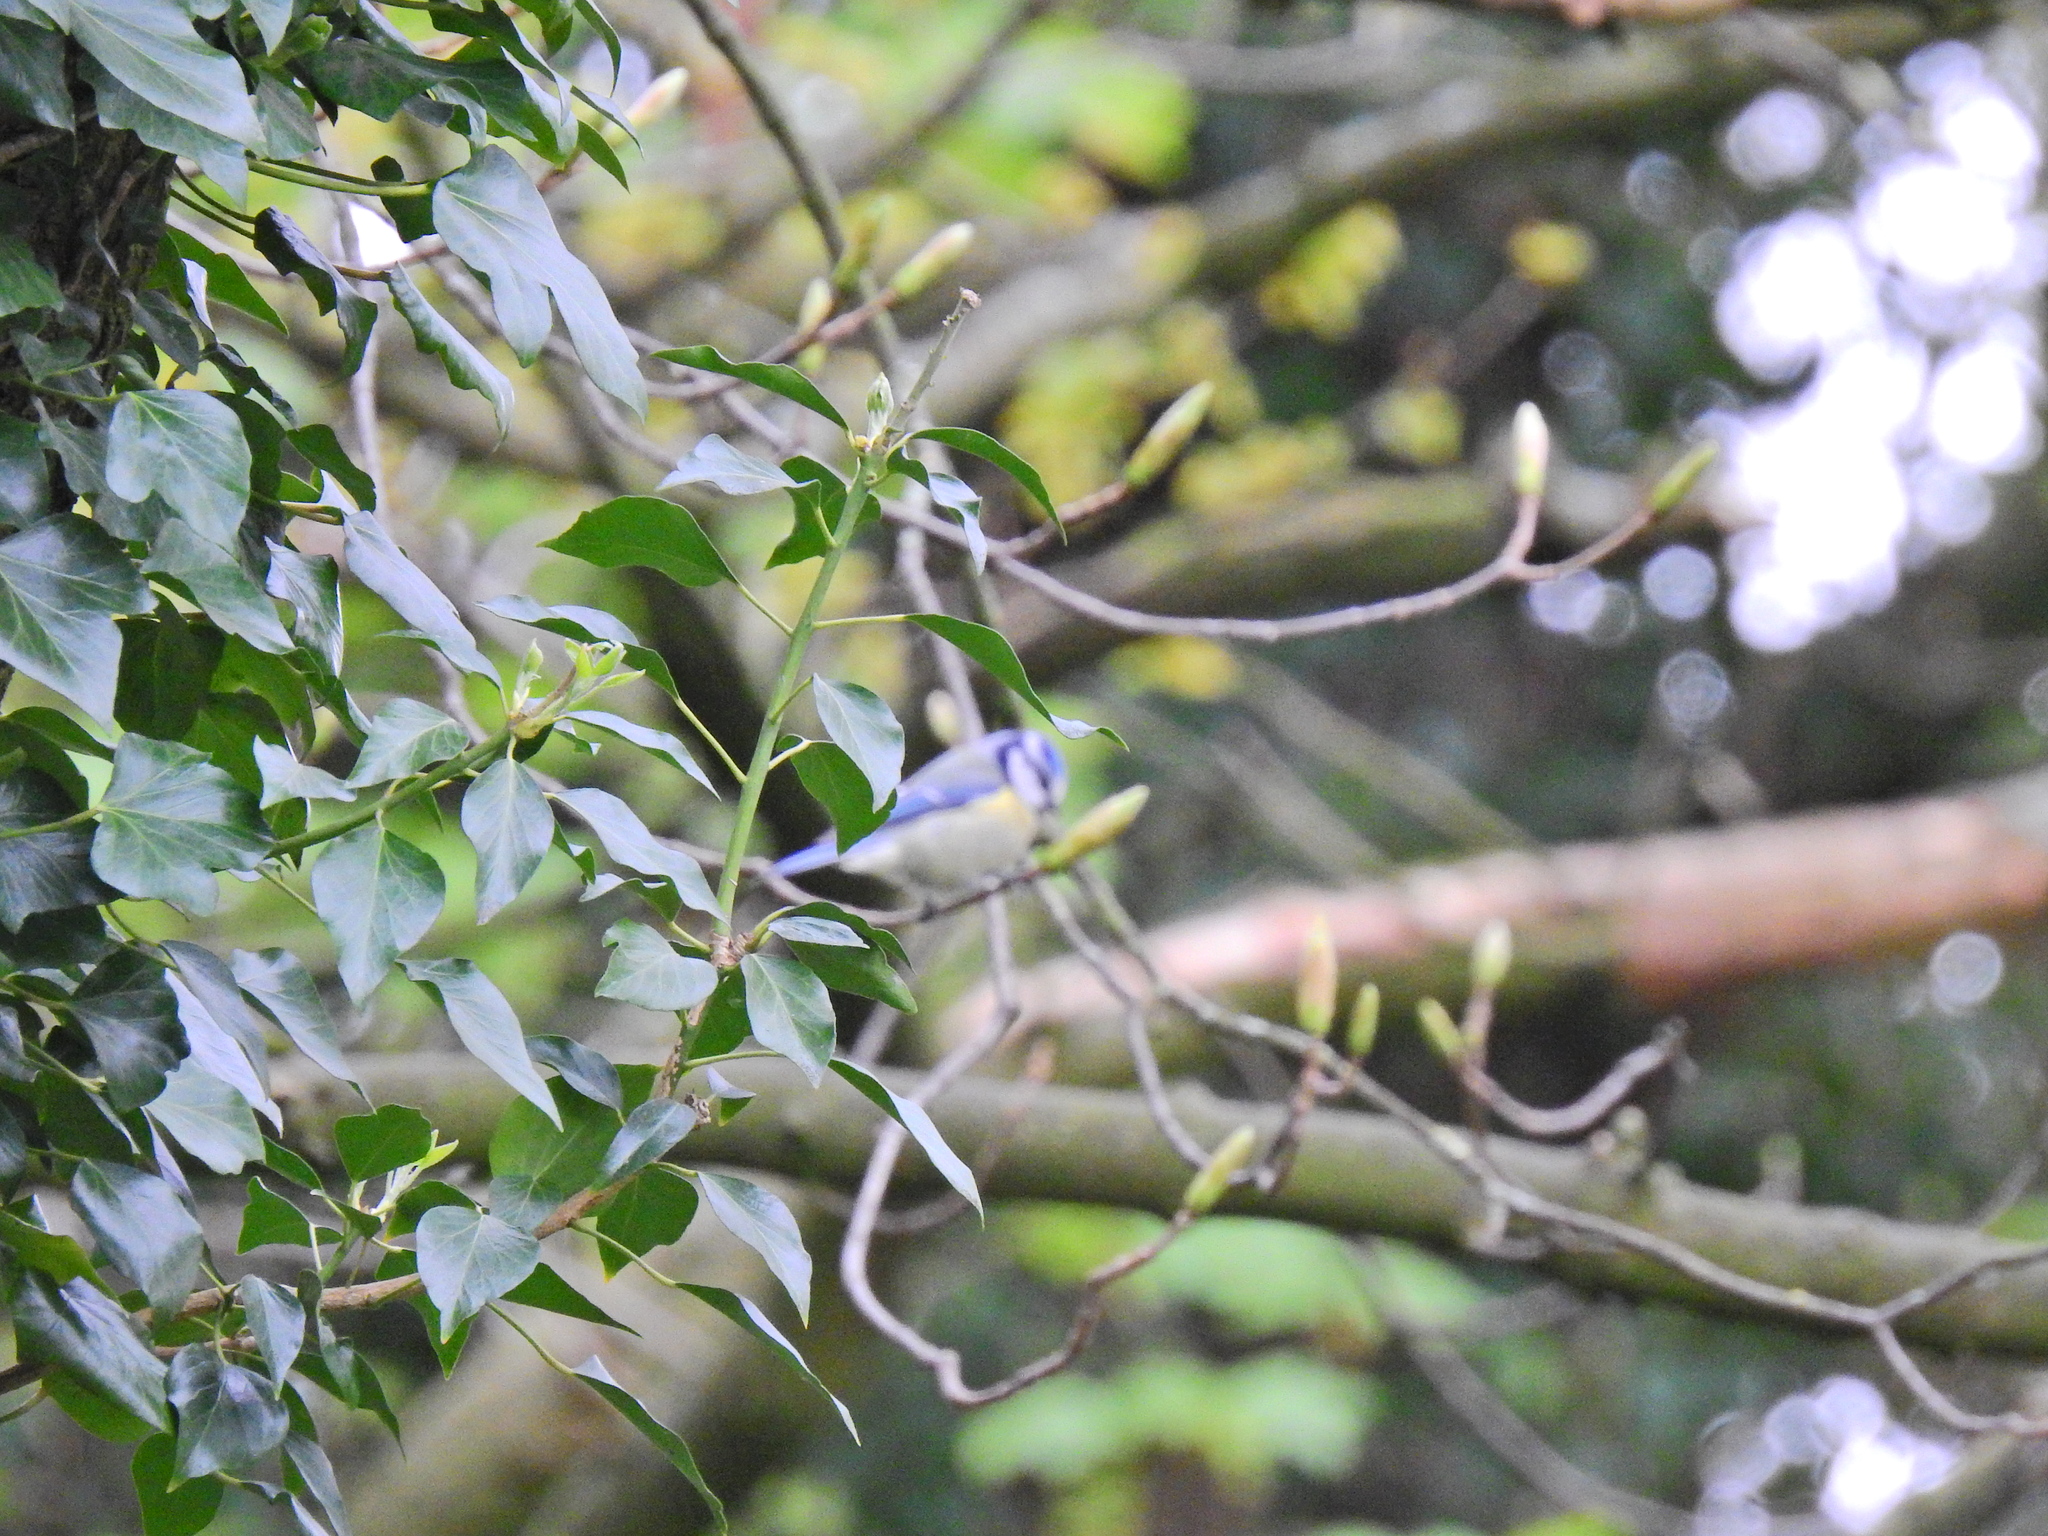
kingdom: Animalia
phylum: Chordata
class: Aves
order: Passeriformes
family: Paridae
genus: Cyanistes
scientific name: Cyanistes caeruleus
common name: Eurasian blue tit
